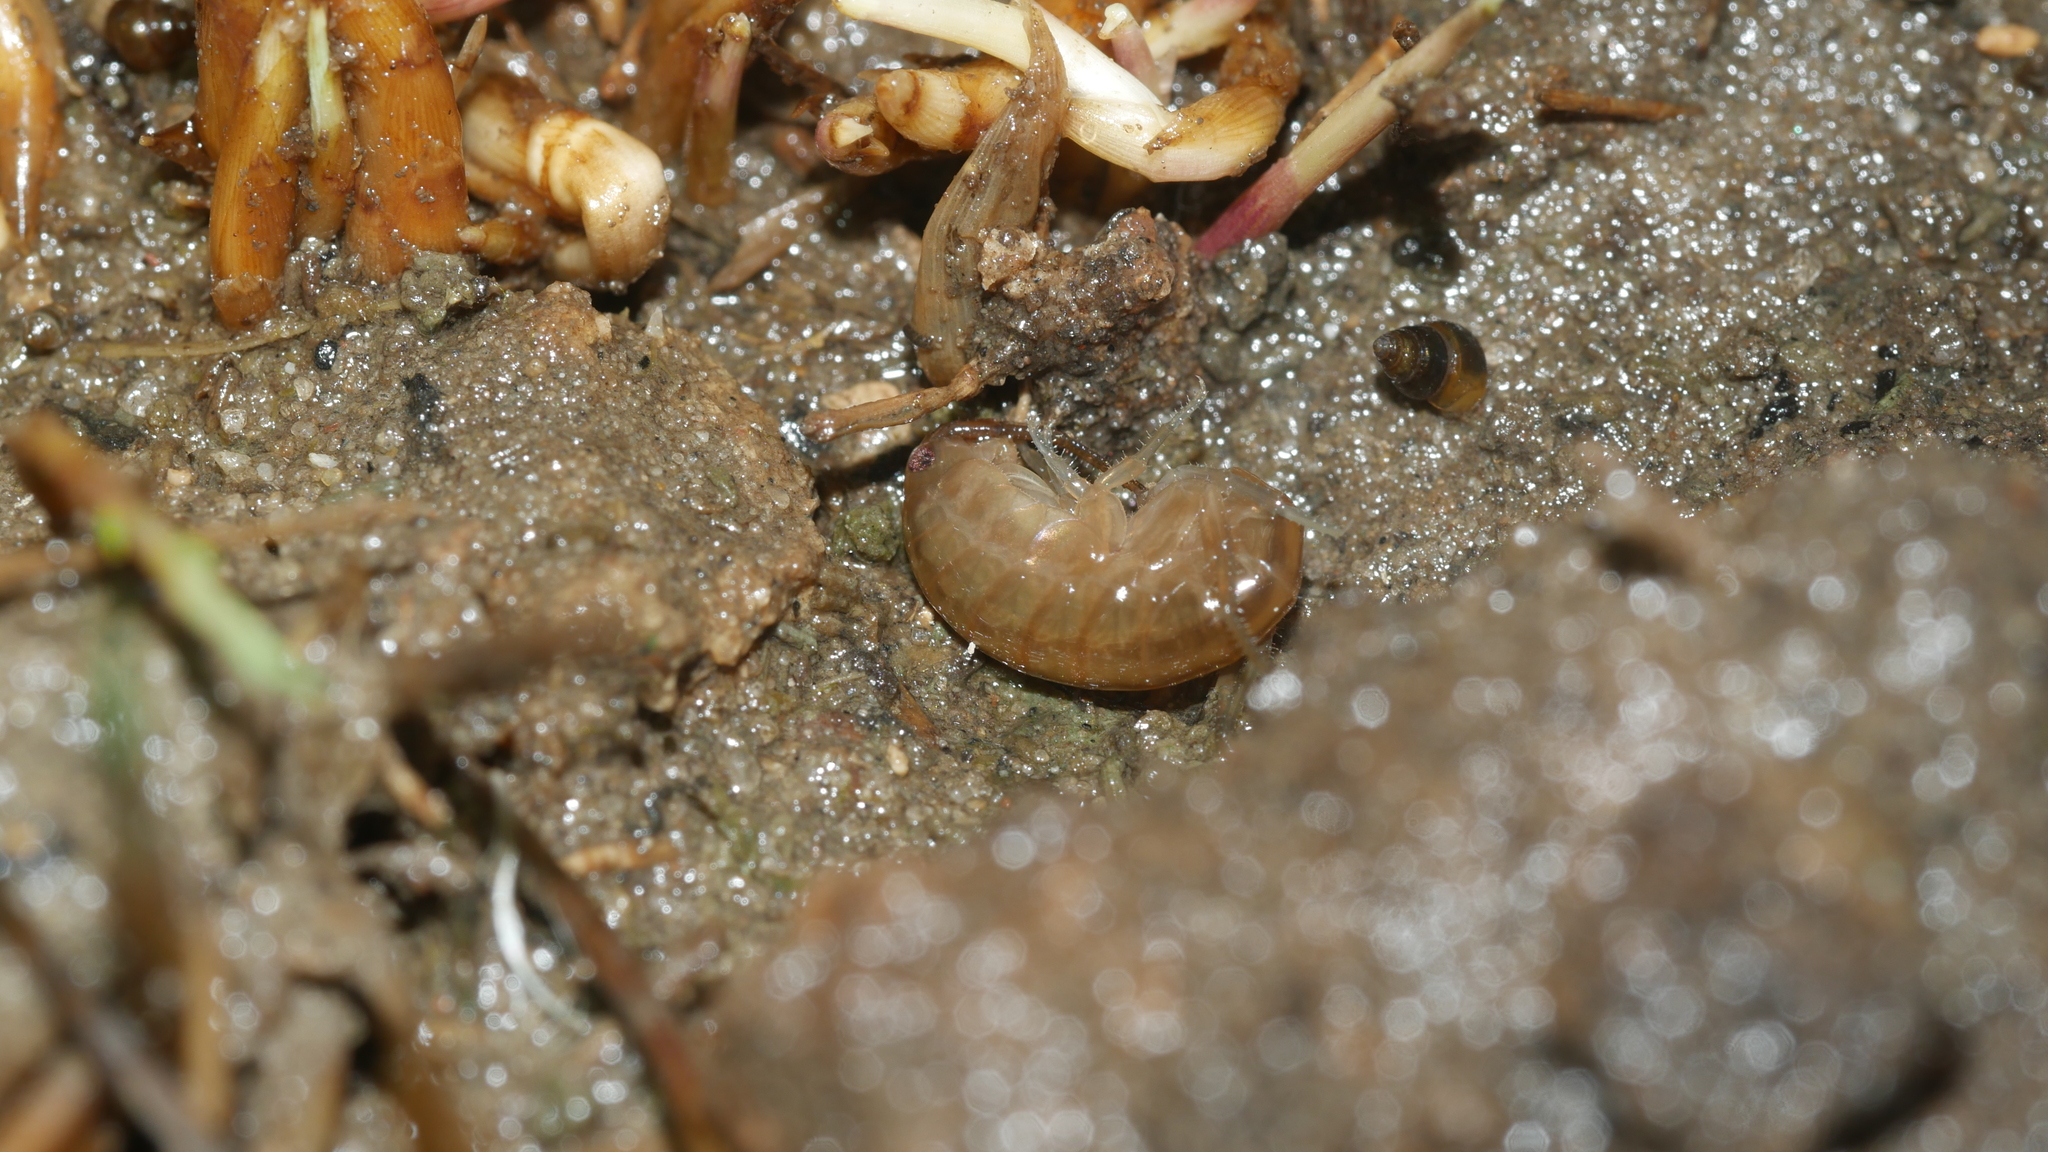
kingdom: Animalia
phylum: Arthropoda
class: Malacostraca
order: Amphipoda
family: Talitridae
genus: Speziorchestia
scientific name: Speziorchestia grillus
